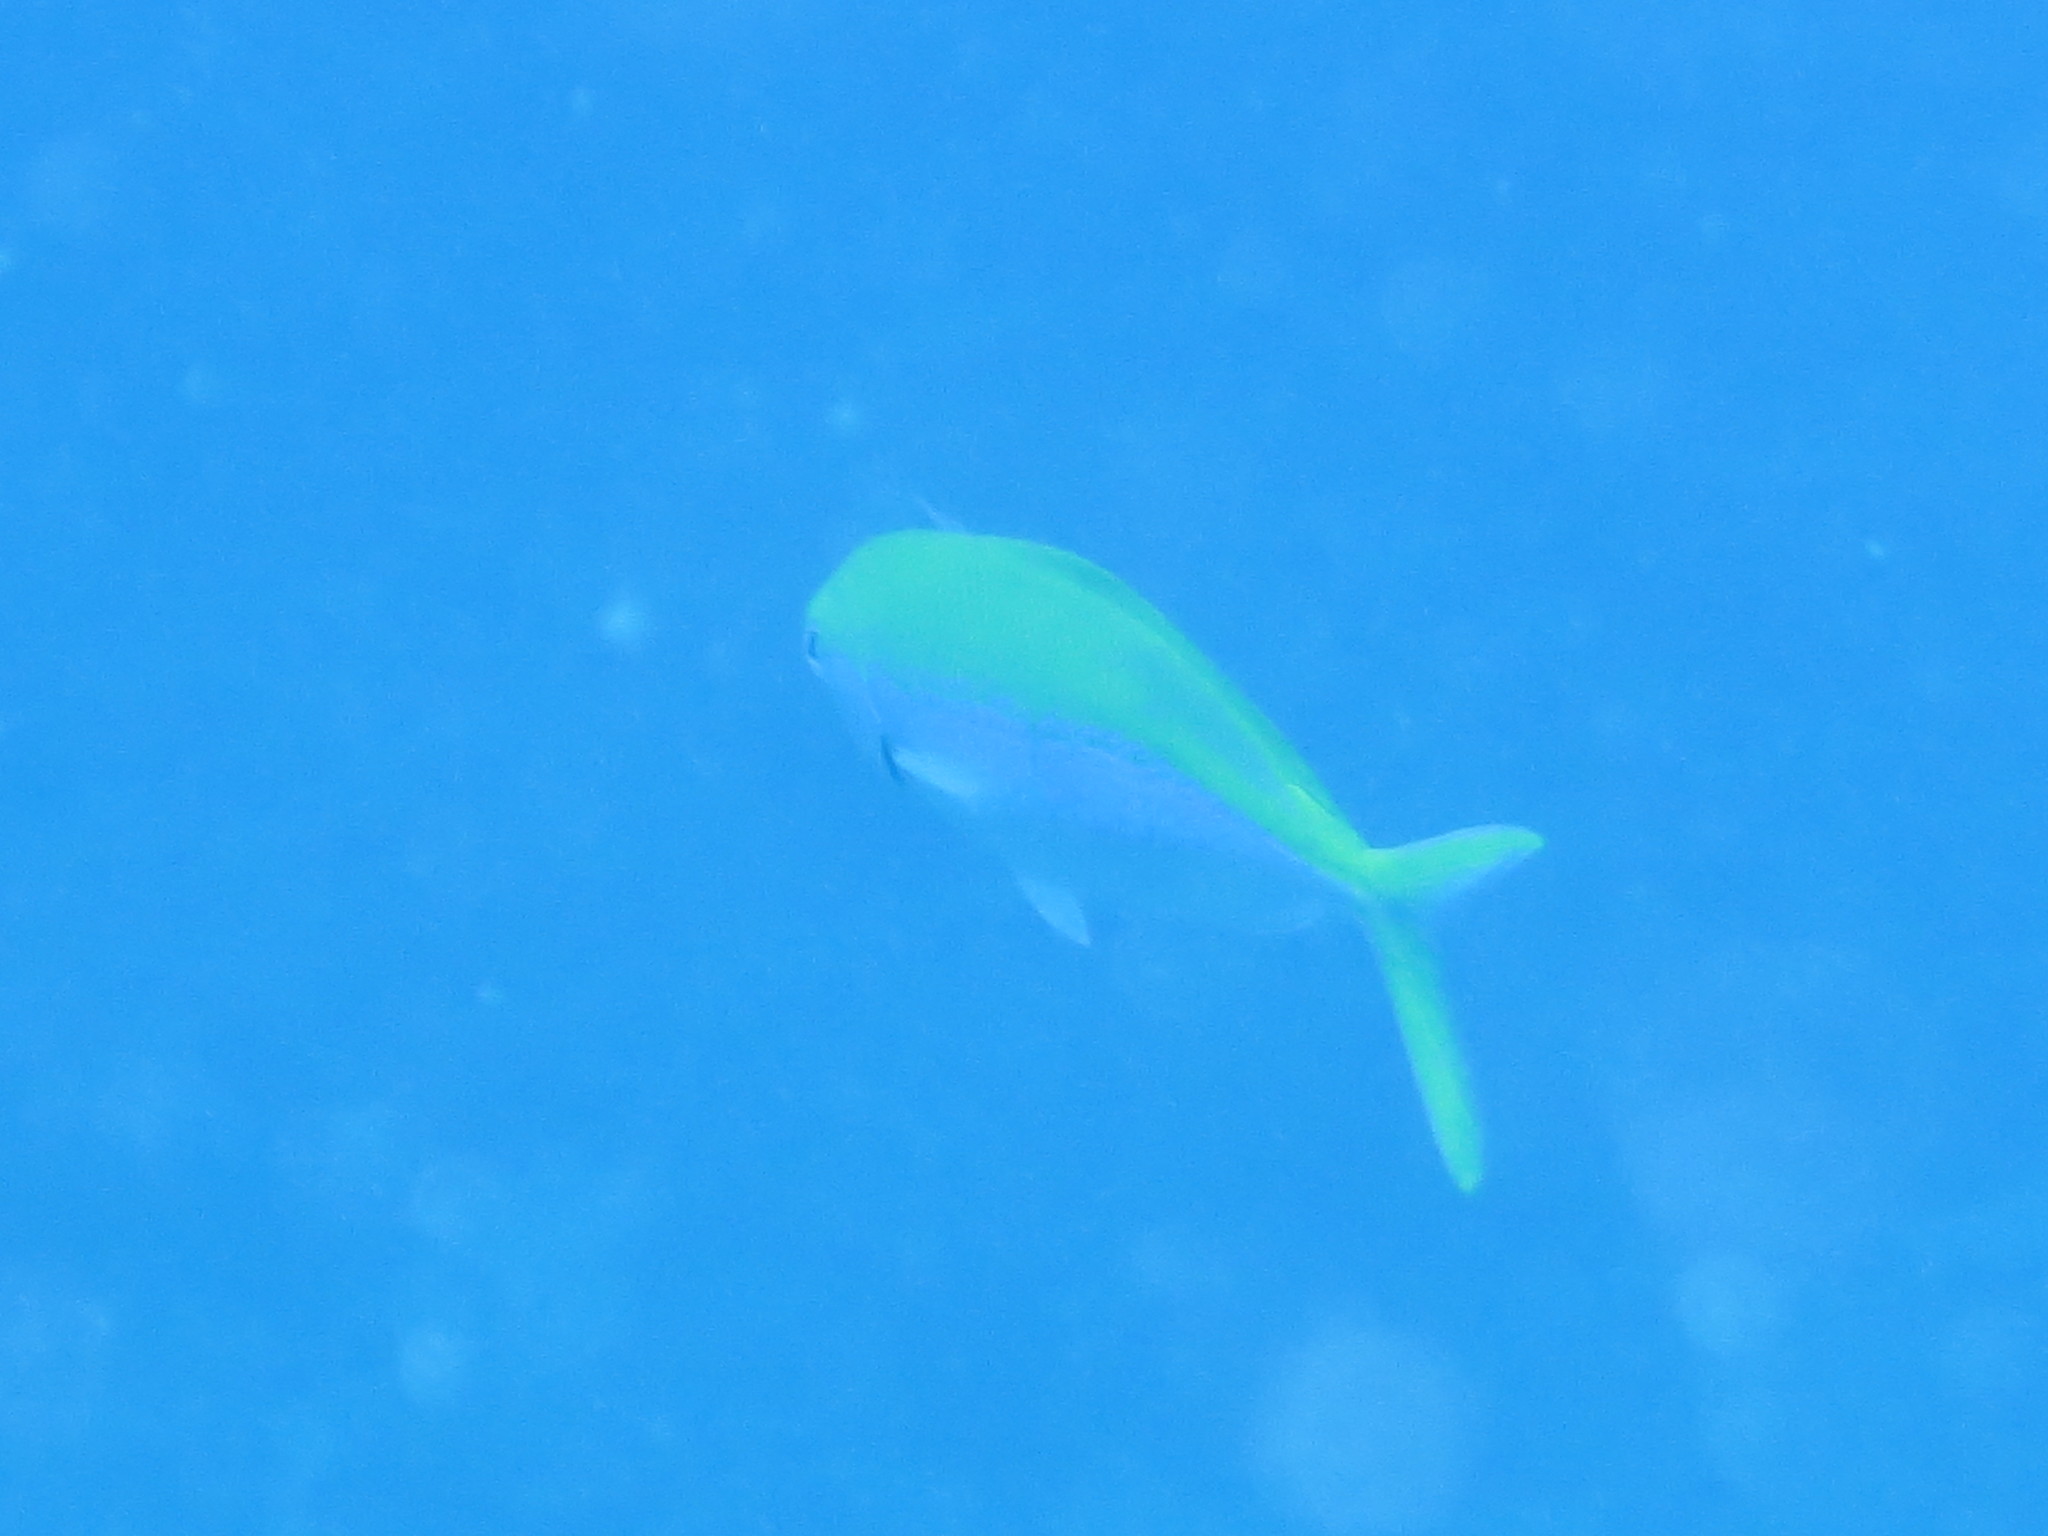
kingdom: Animalia
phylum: Chordata
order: Perciformes
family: Caesionidae
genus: Caesio
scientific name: Caesio xanthonota
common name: Yellowback fusilier
